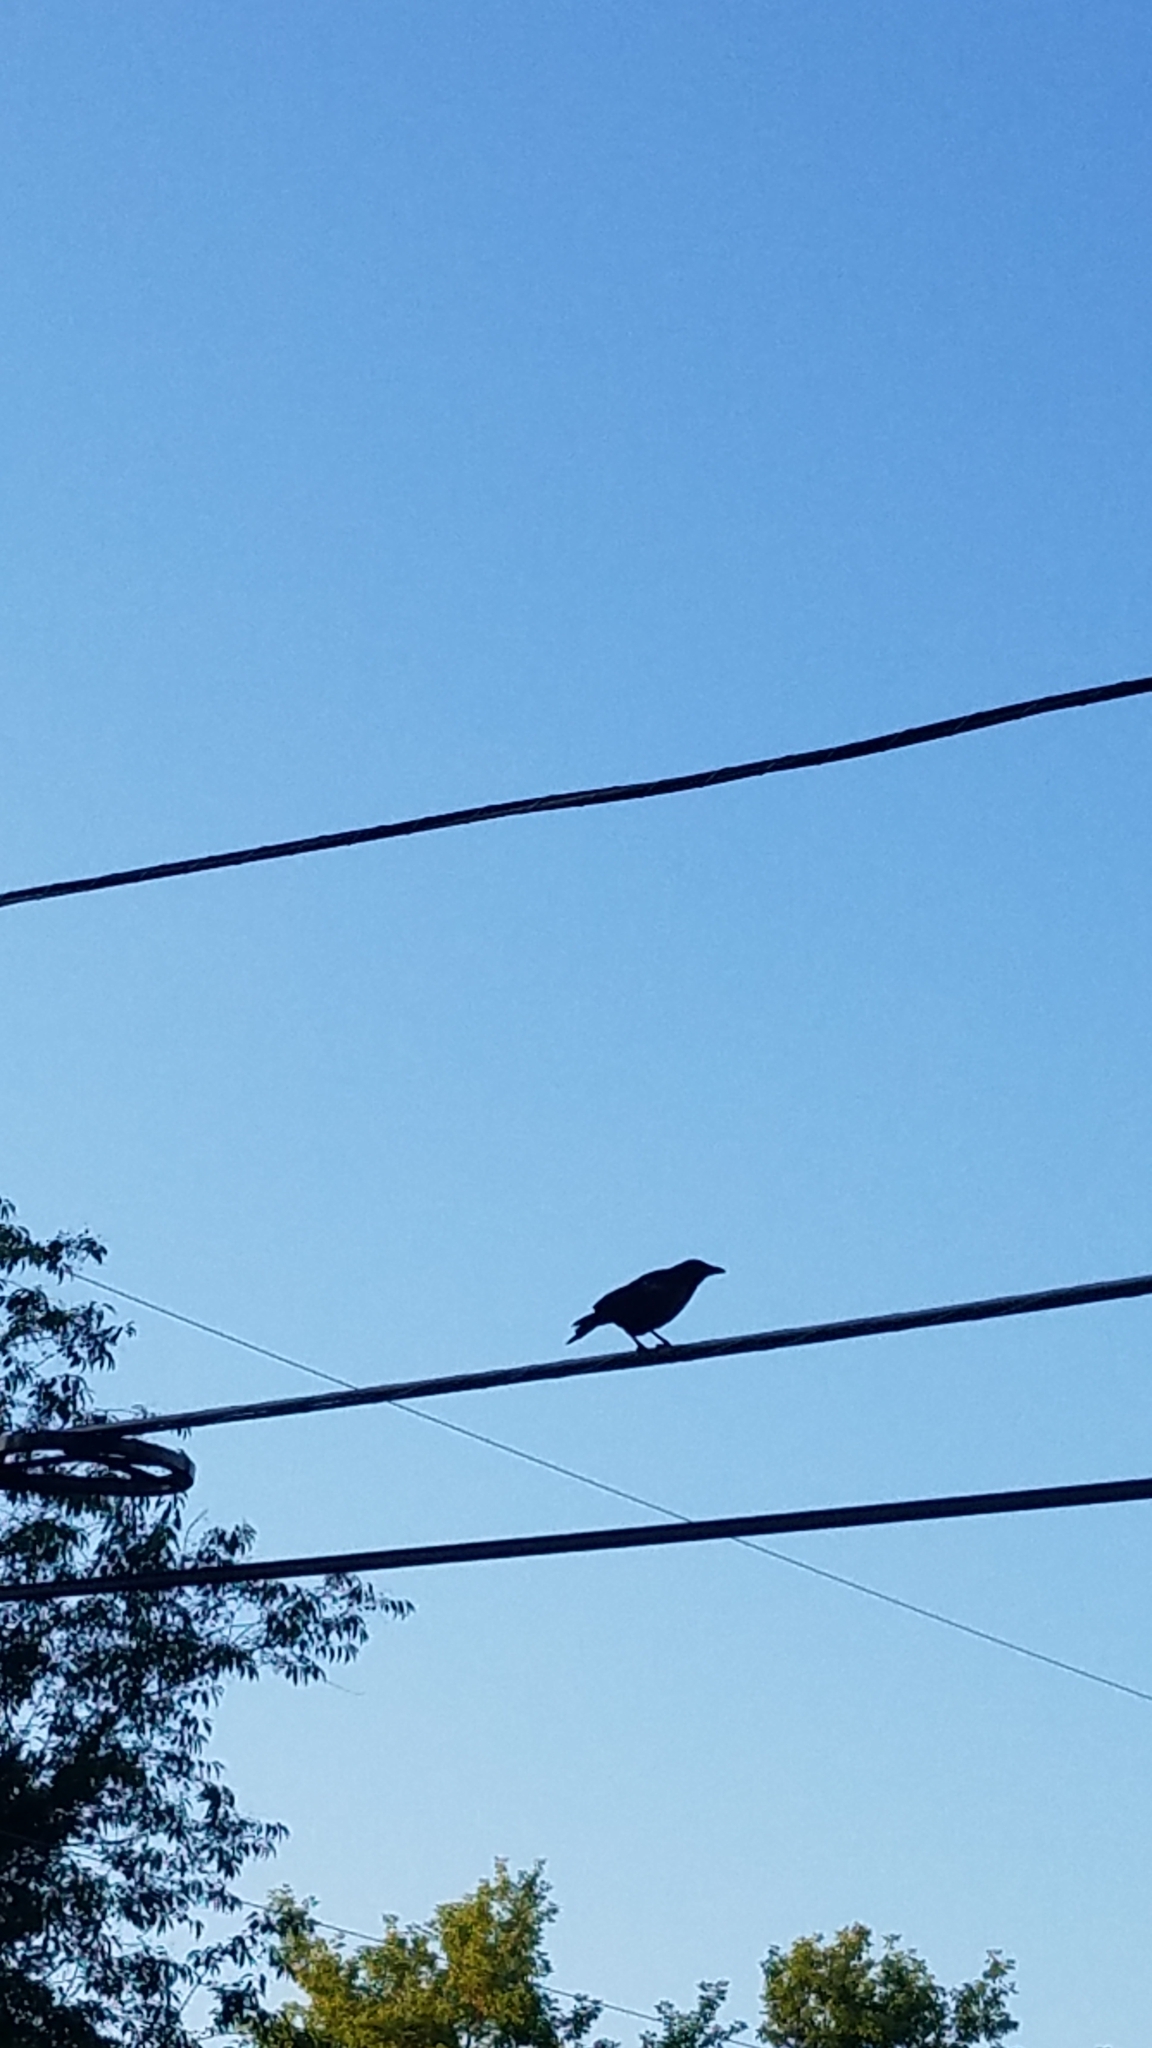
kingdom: Animalia
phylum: Chordata
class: Aves
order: Passeriformes
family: Corvidae
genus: Corvus
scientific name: Corvus brachyrhynchos
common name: American crow
